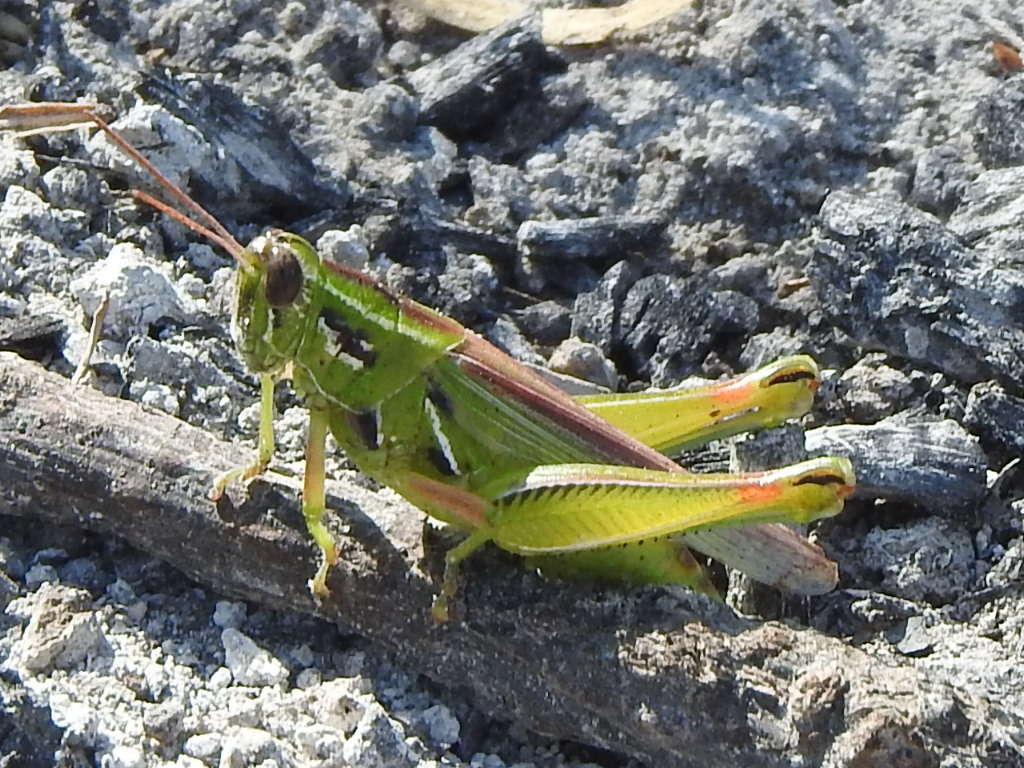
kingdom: Animalia
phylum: Arthropoda
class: Insecta
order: Orthoptera
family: Acrididae
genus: Hesperotettix
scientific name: Hesperotettix viridis
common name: Meadow purple-striped grasshopper
